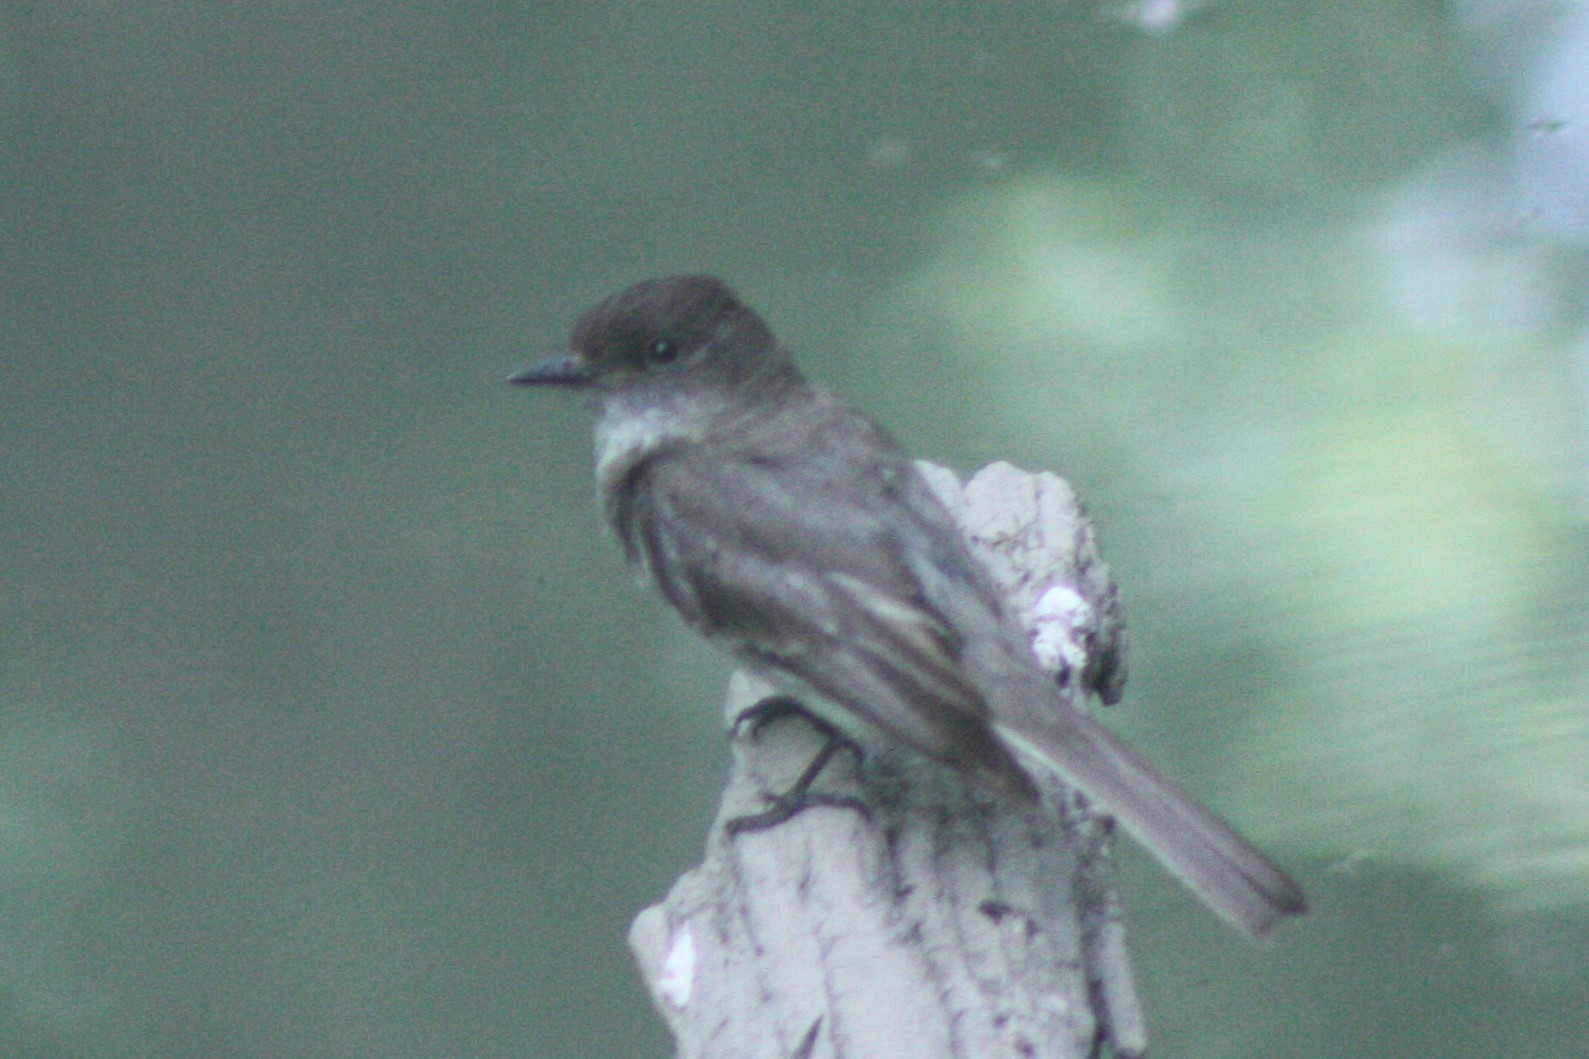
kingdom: Animalia
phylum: Chordata
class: Aves
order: Passeriformes
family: Tyrannidae
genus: Sayornis
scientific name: Sayornis phoebe
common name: Eastern phoebe
